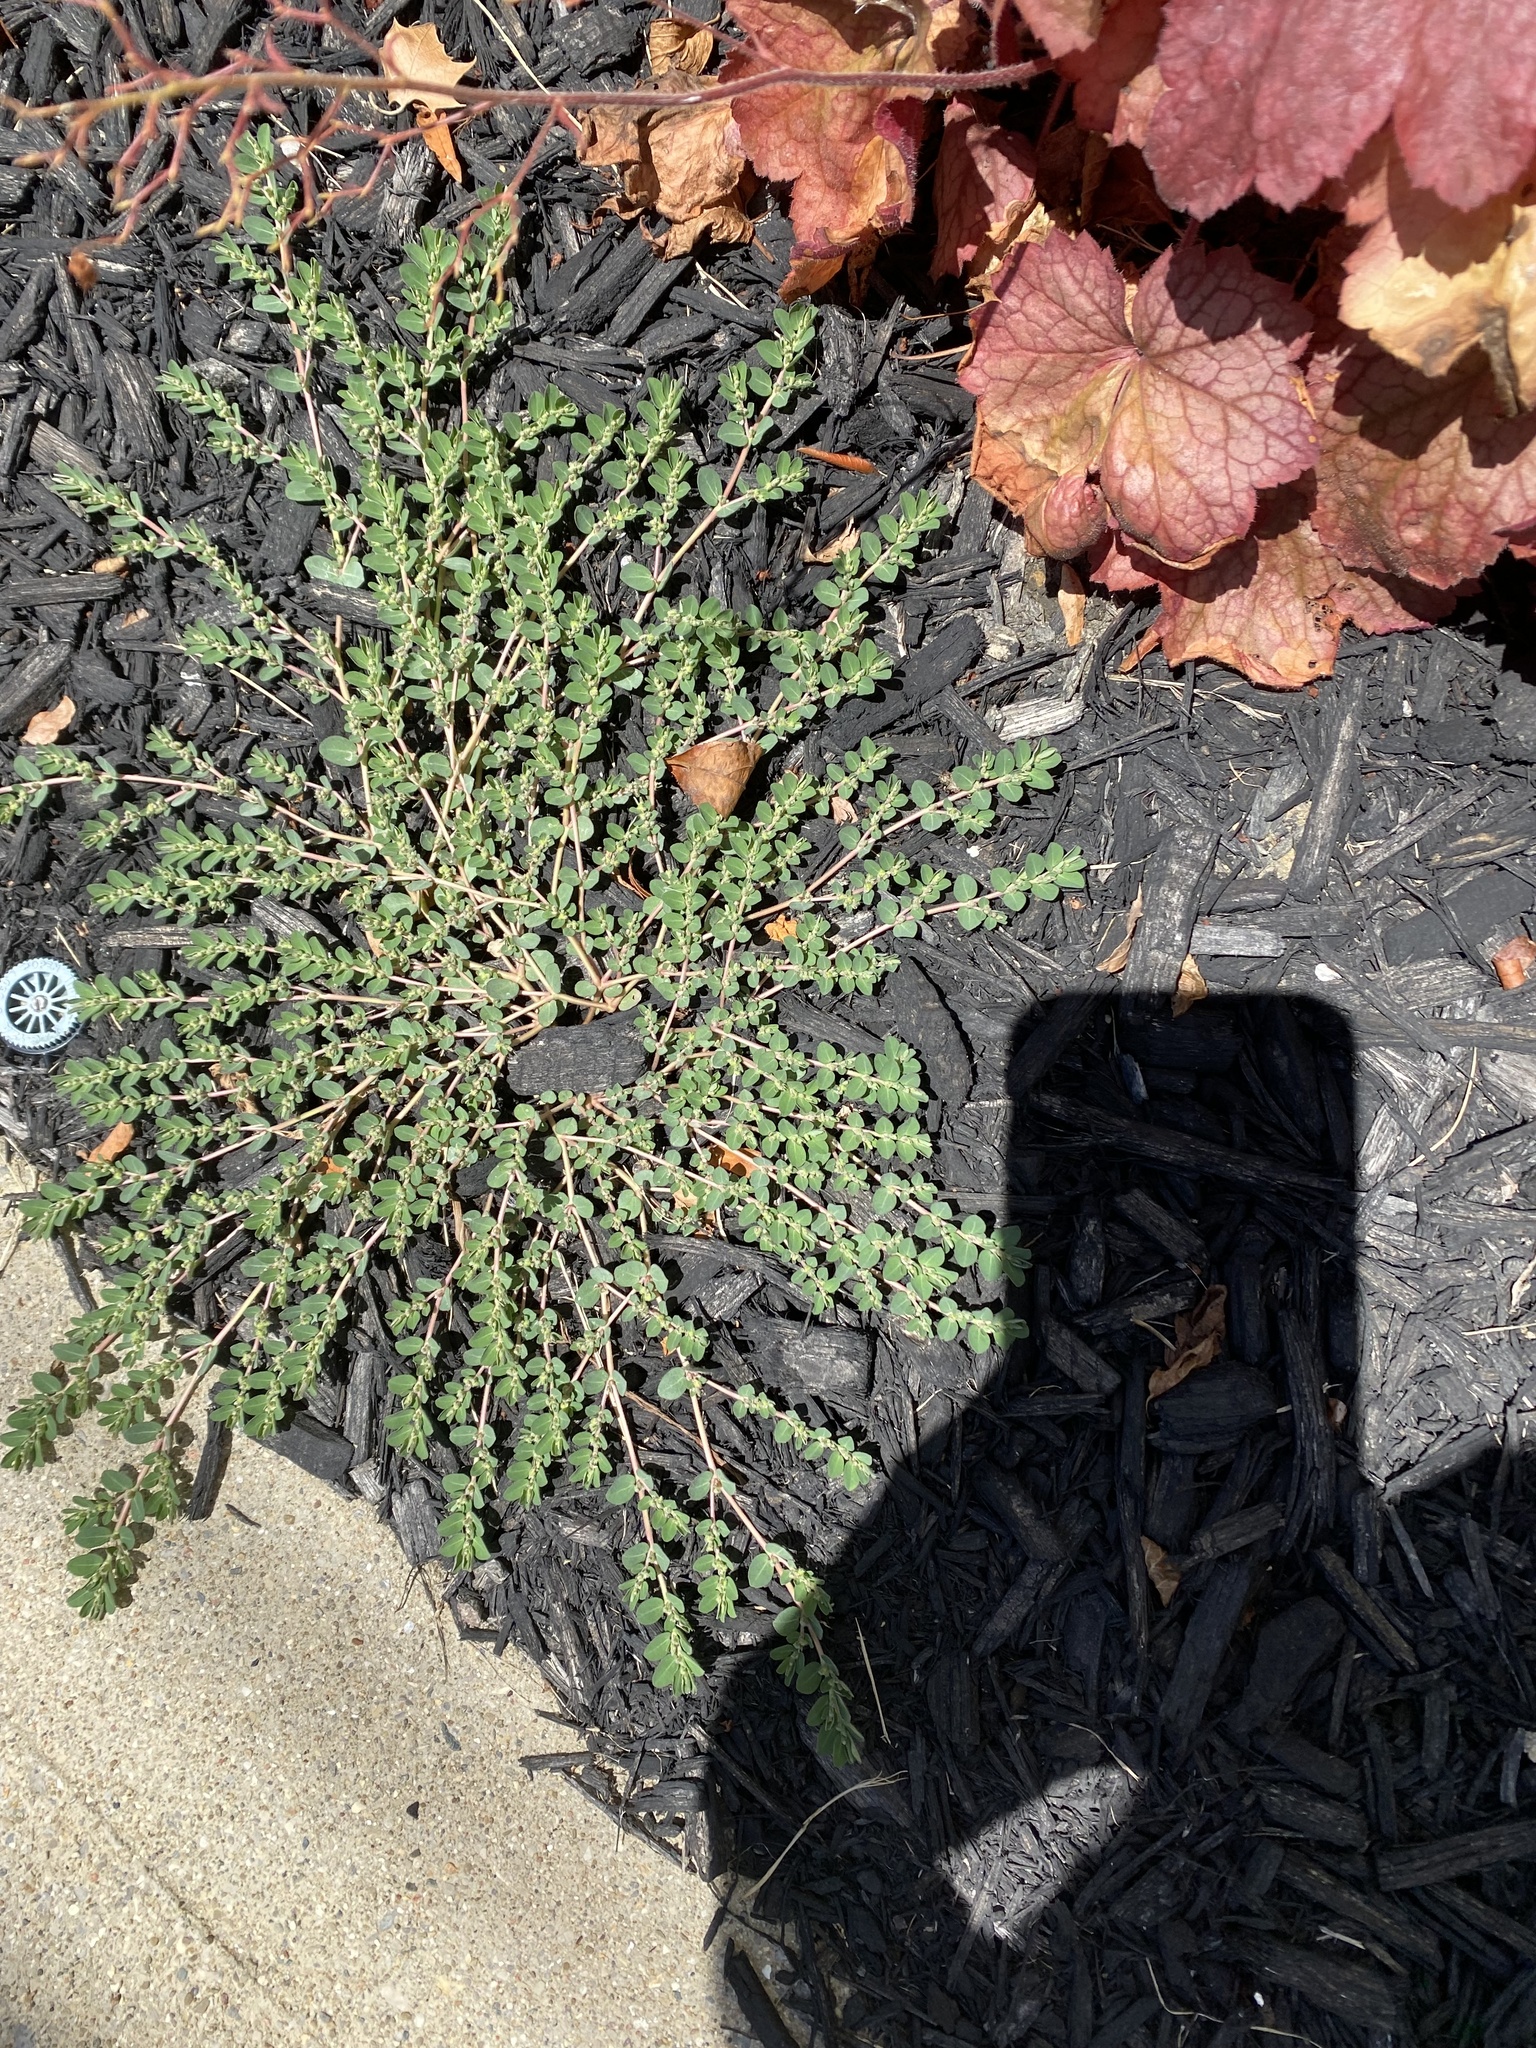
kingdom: Plantae
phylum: Tracheophyta
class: Magnoliopsida
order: Malpighiales
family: Euphorbiaceae
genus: Euphorbia
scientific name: Euphorbia prostrata
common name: Prostrate sandmat
